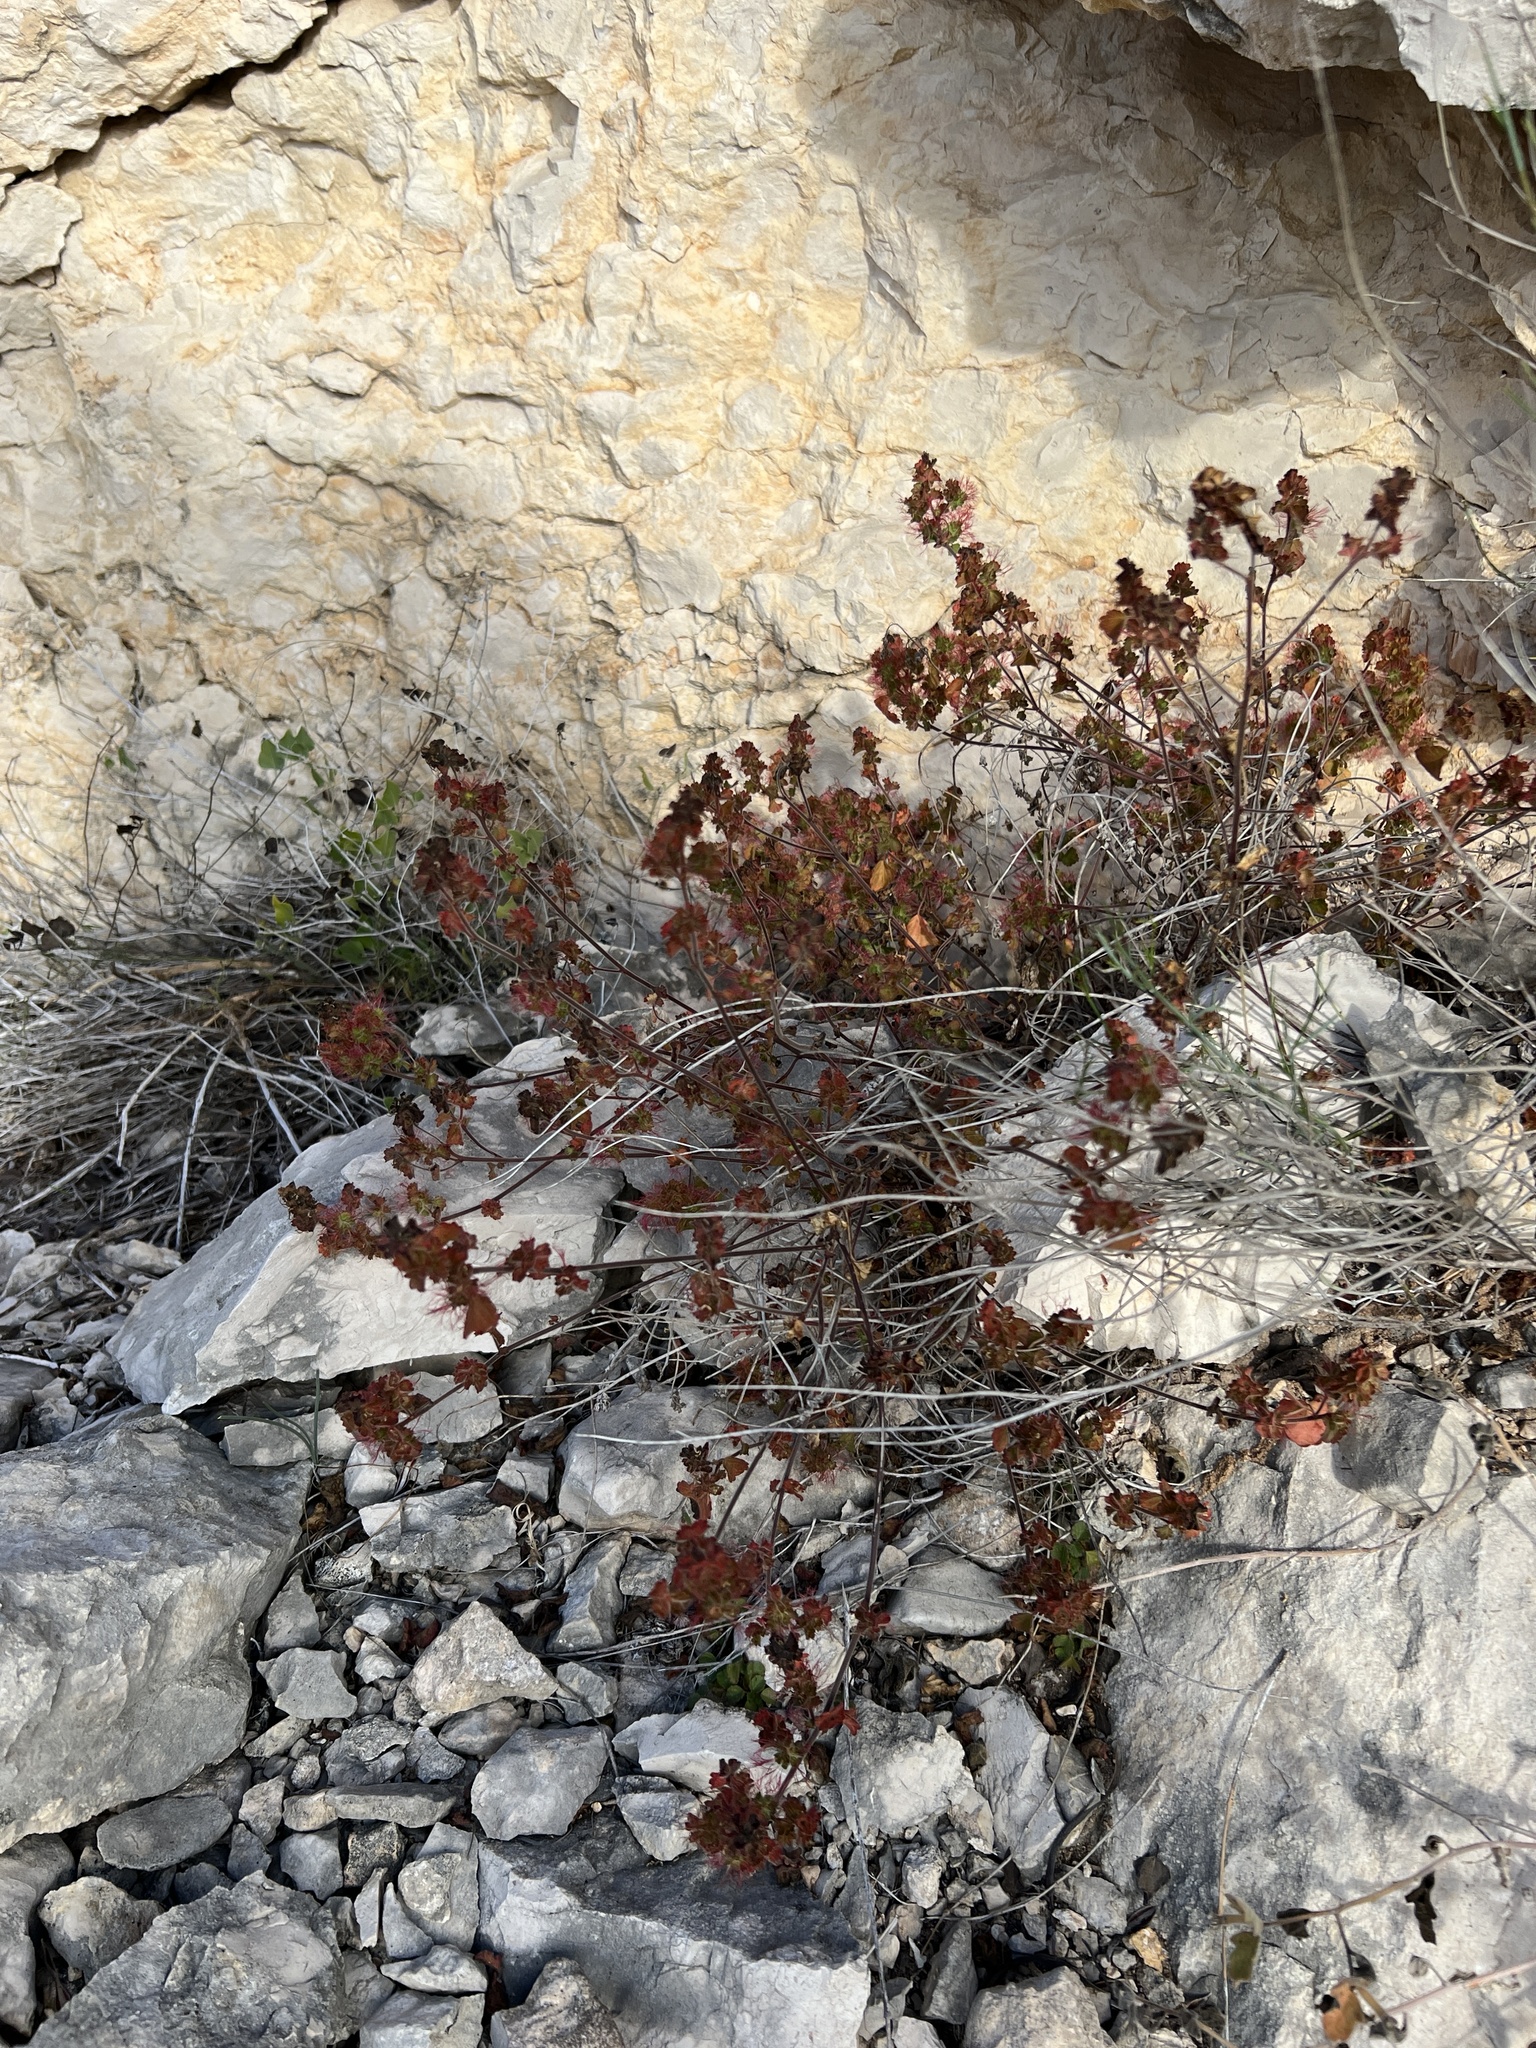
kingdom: Plantae
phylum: Tracheophyta
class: Magnoliopsida
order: Malpighiales
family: Euphorbiaceae
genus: Acalypha
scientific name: Acalypha monostachya
